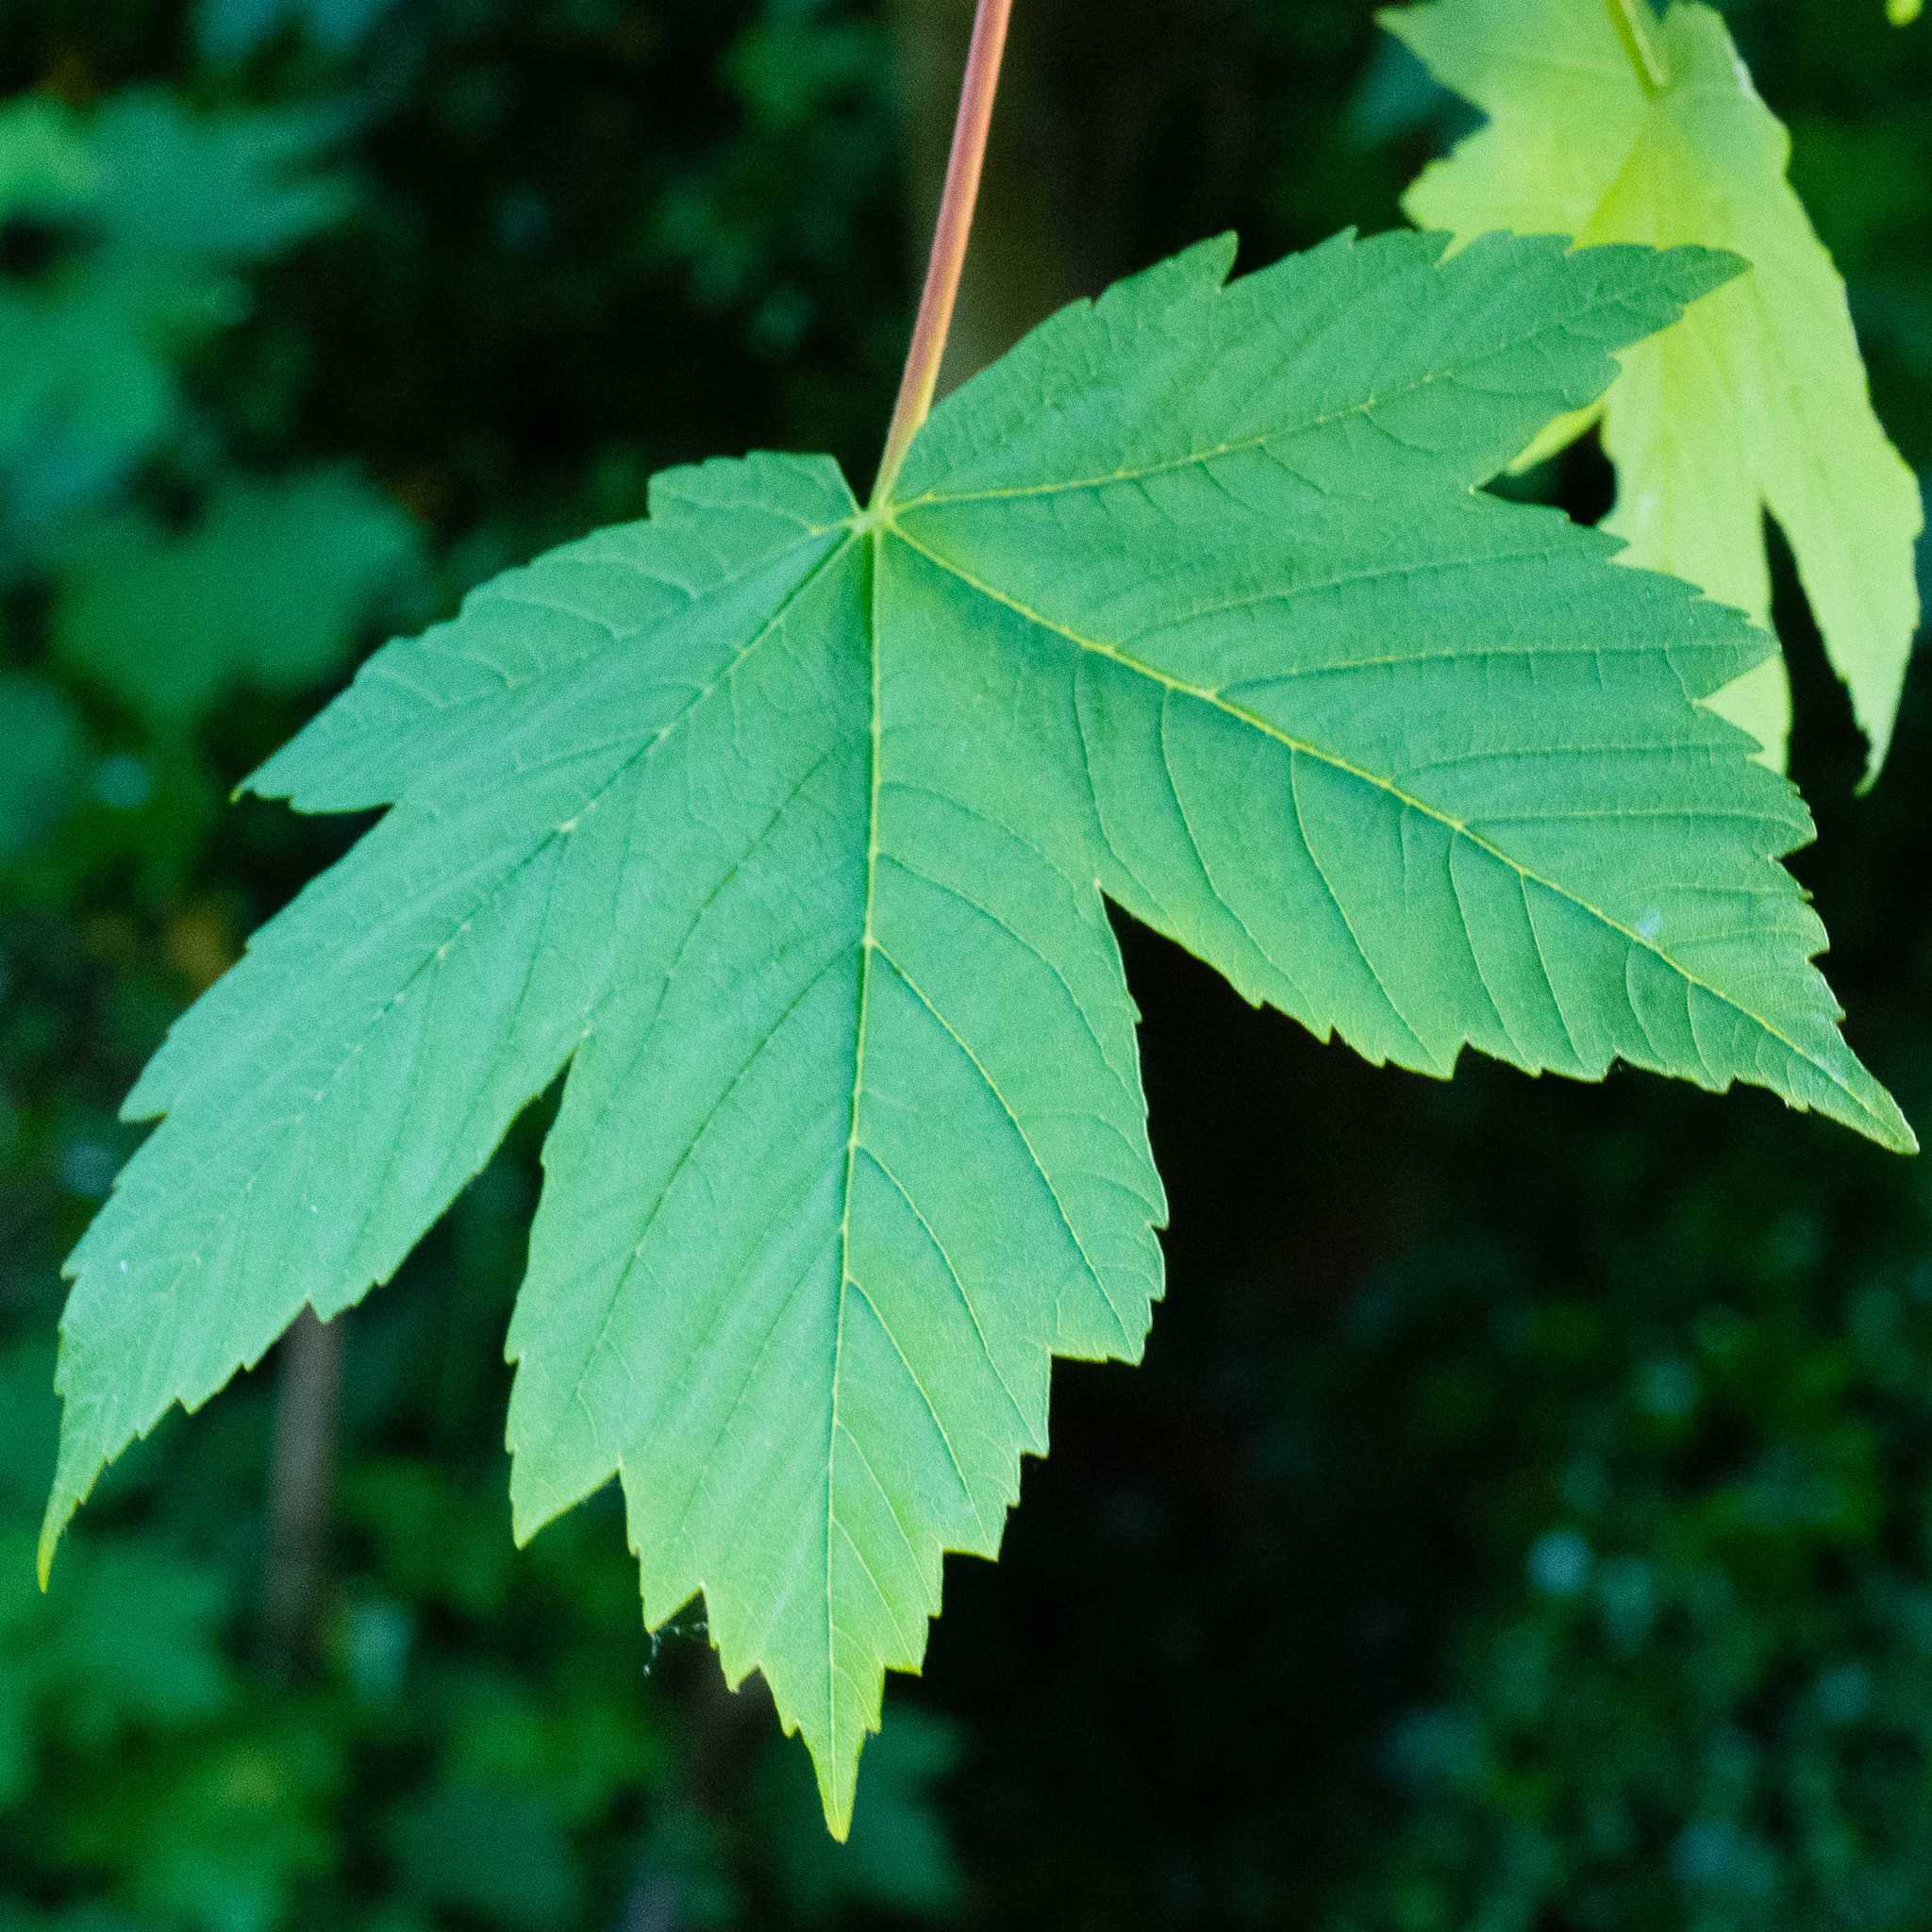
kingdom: Plantae
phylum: Tracheophyta
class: Magnoliopsida
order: Sapindales
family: Sapindaceae
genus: Acer
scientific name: Acer pseudoplatanus
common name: Sycamore
